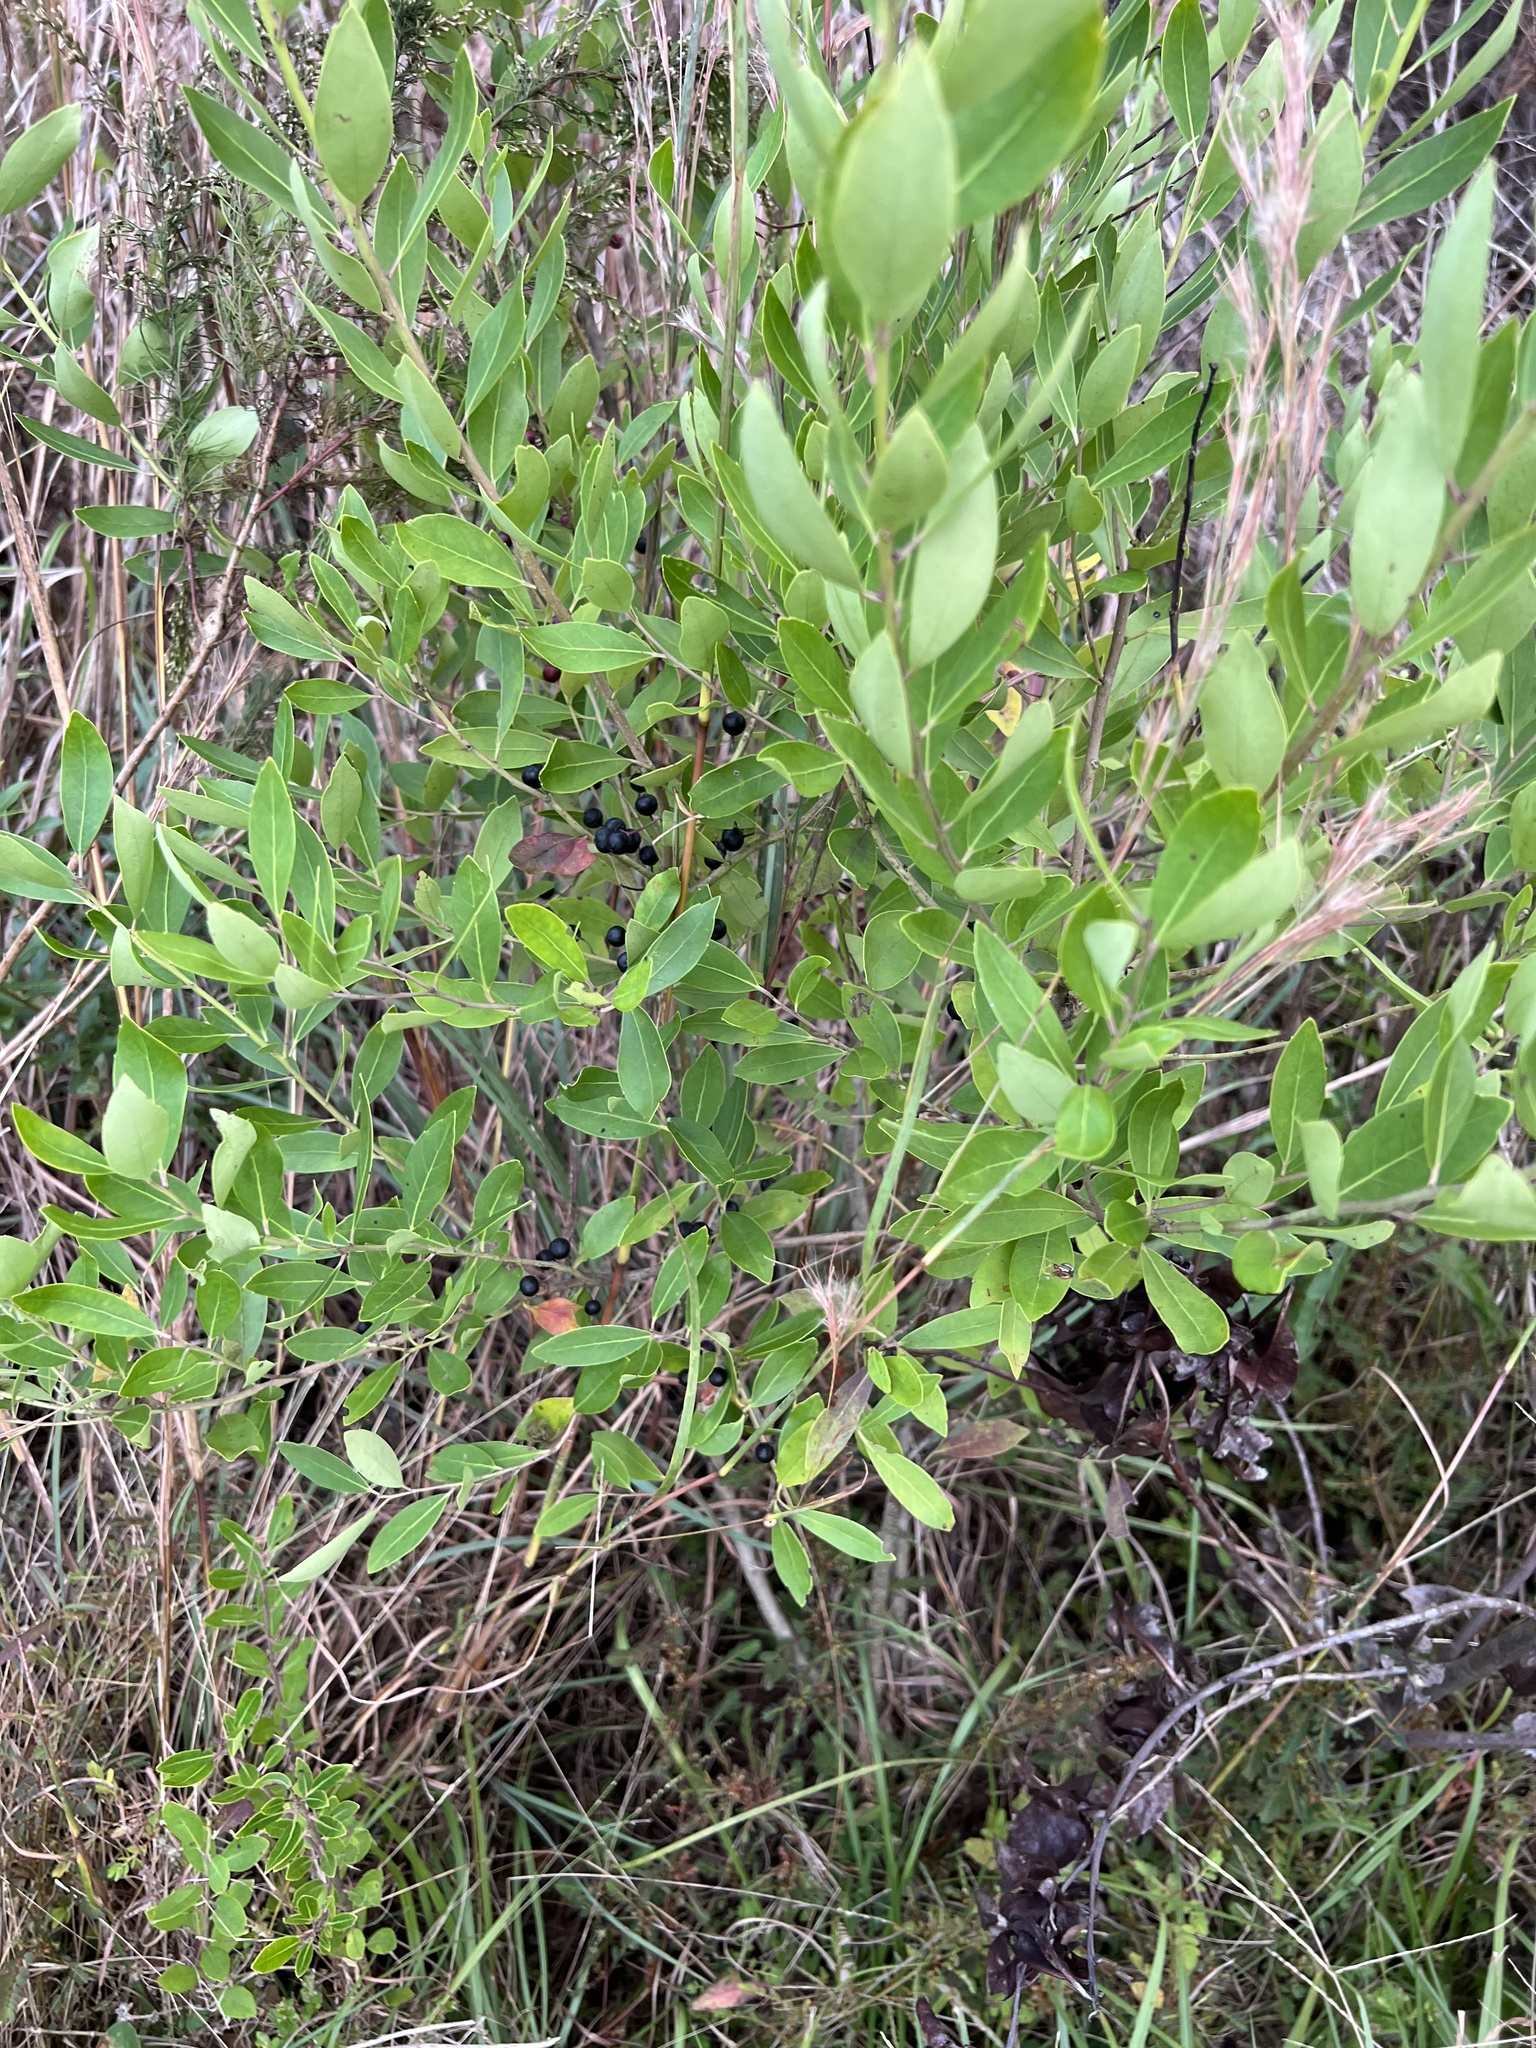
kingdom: Plantae
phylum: Tracheophyta
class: Magnoliopsida
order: Aquifoliales
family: Aquifoliaceae
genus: Ilex
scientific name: Ilex glabra
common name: Bitter gallberry
